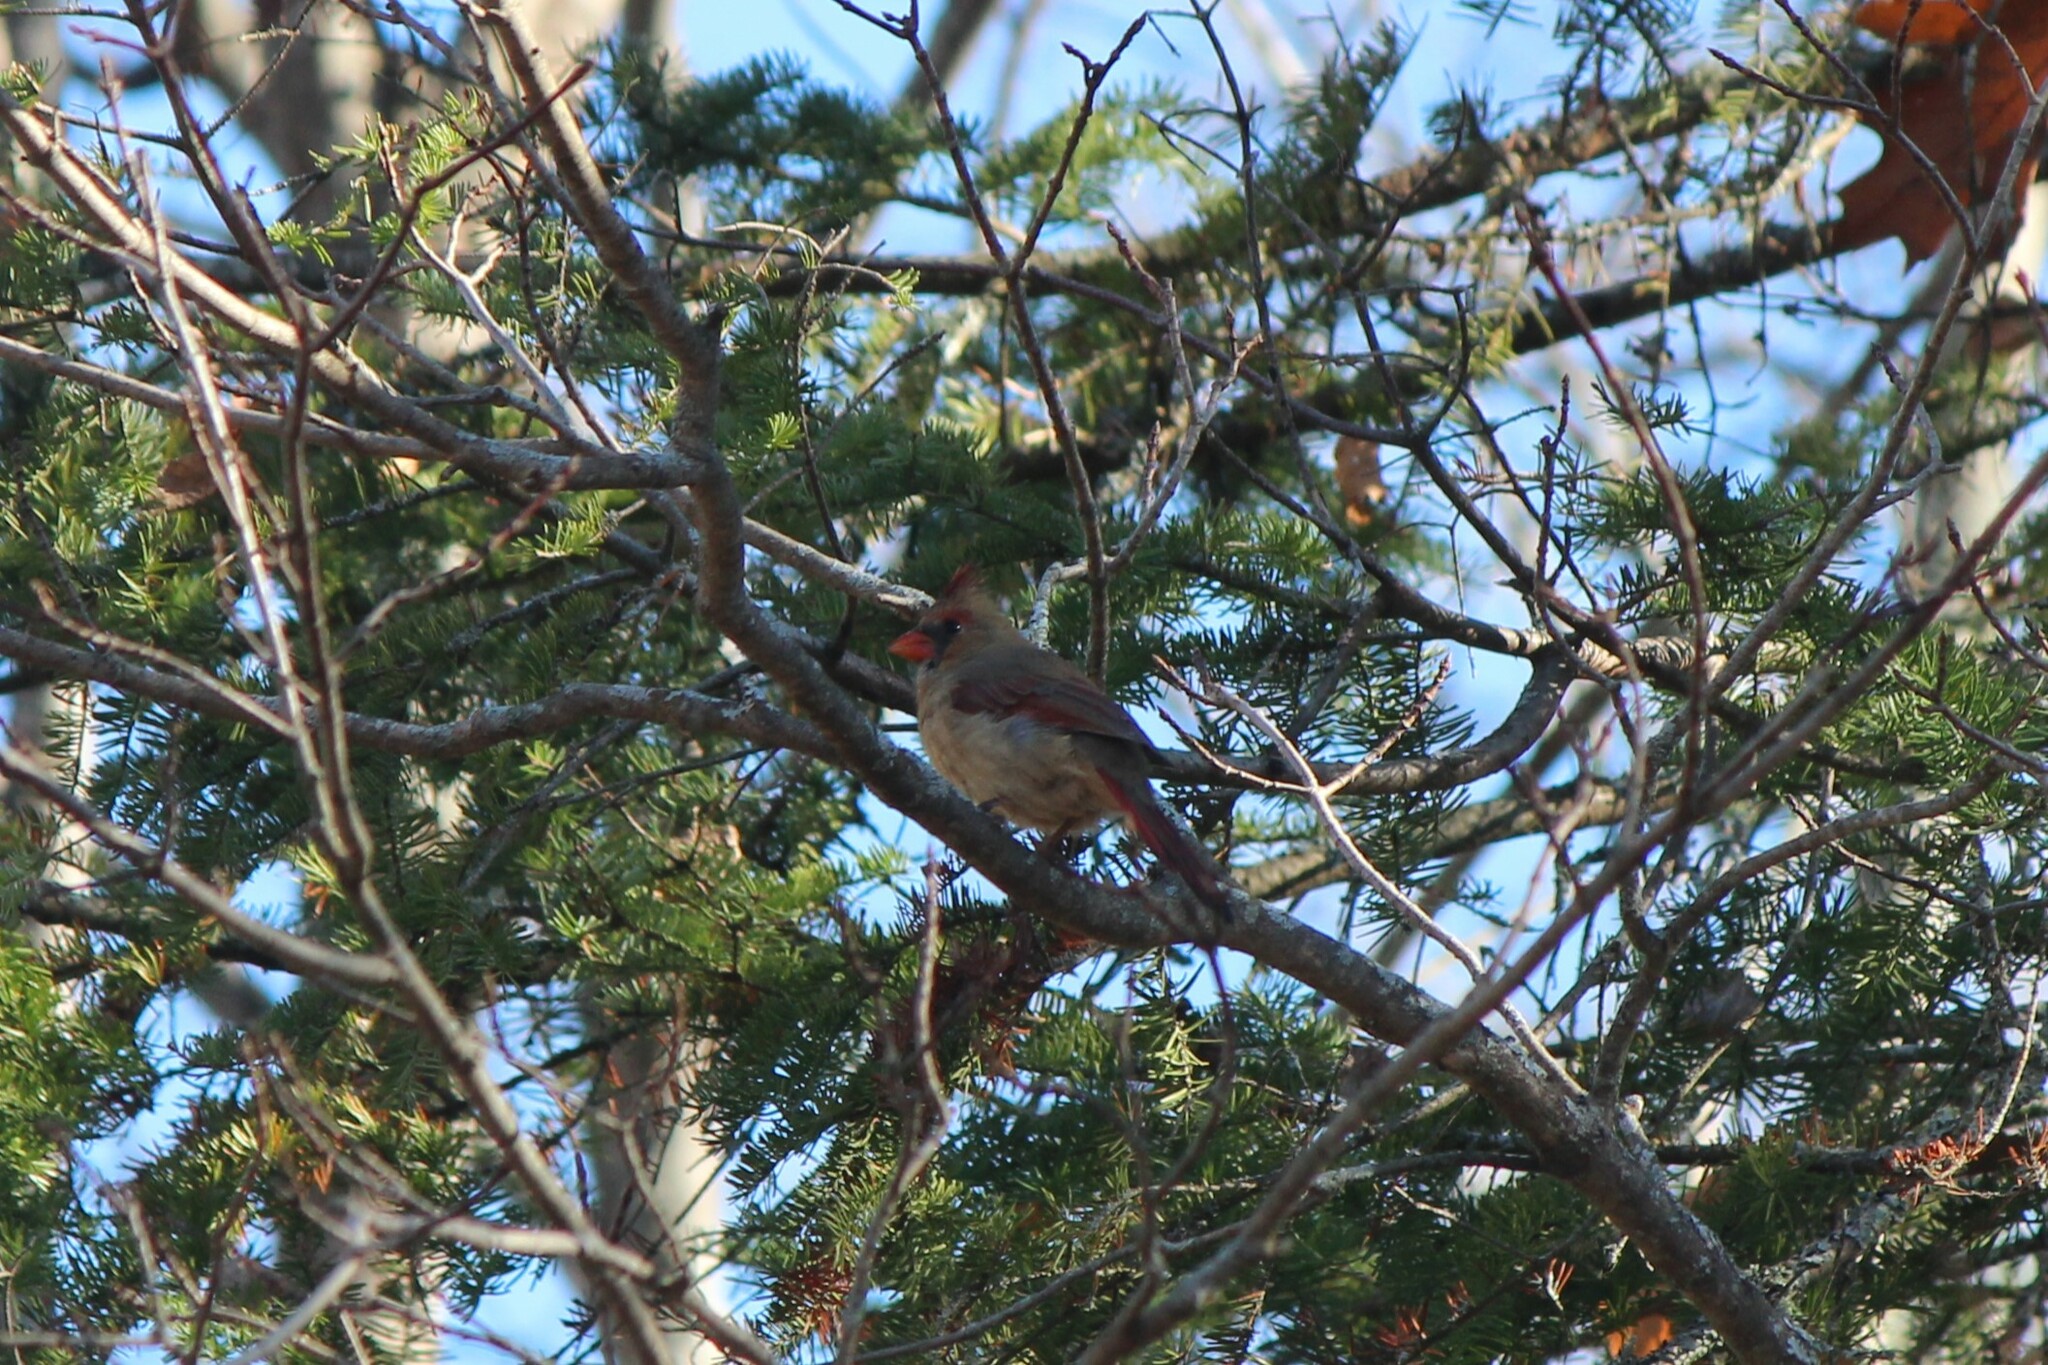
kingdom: Animalia
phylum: Chordata
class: Aves
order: Passeriformes
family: Cardinalidae
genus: Cardinalis
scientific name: Cardinalis cardinalis
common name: Northern cardinal
